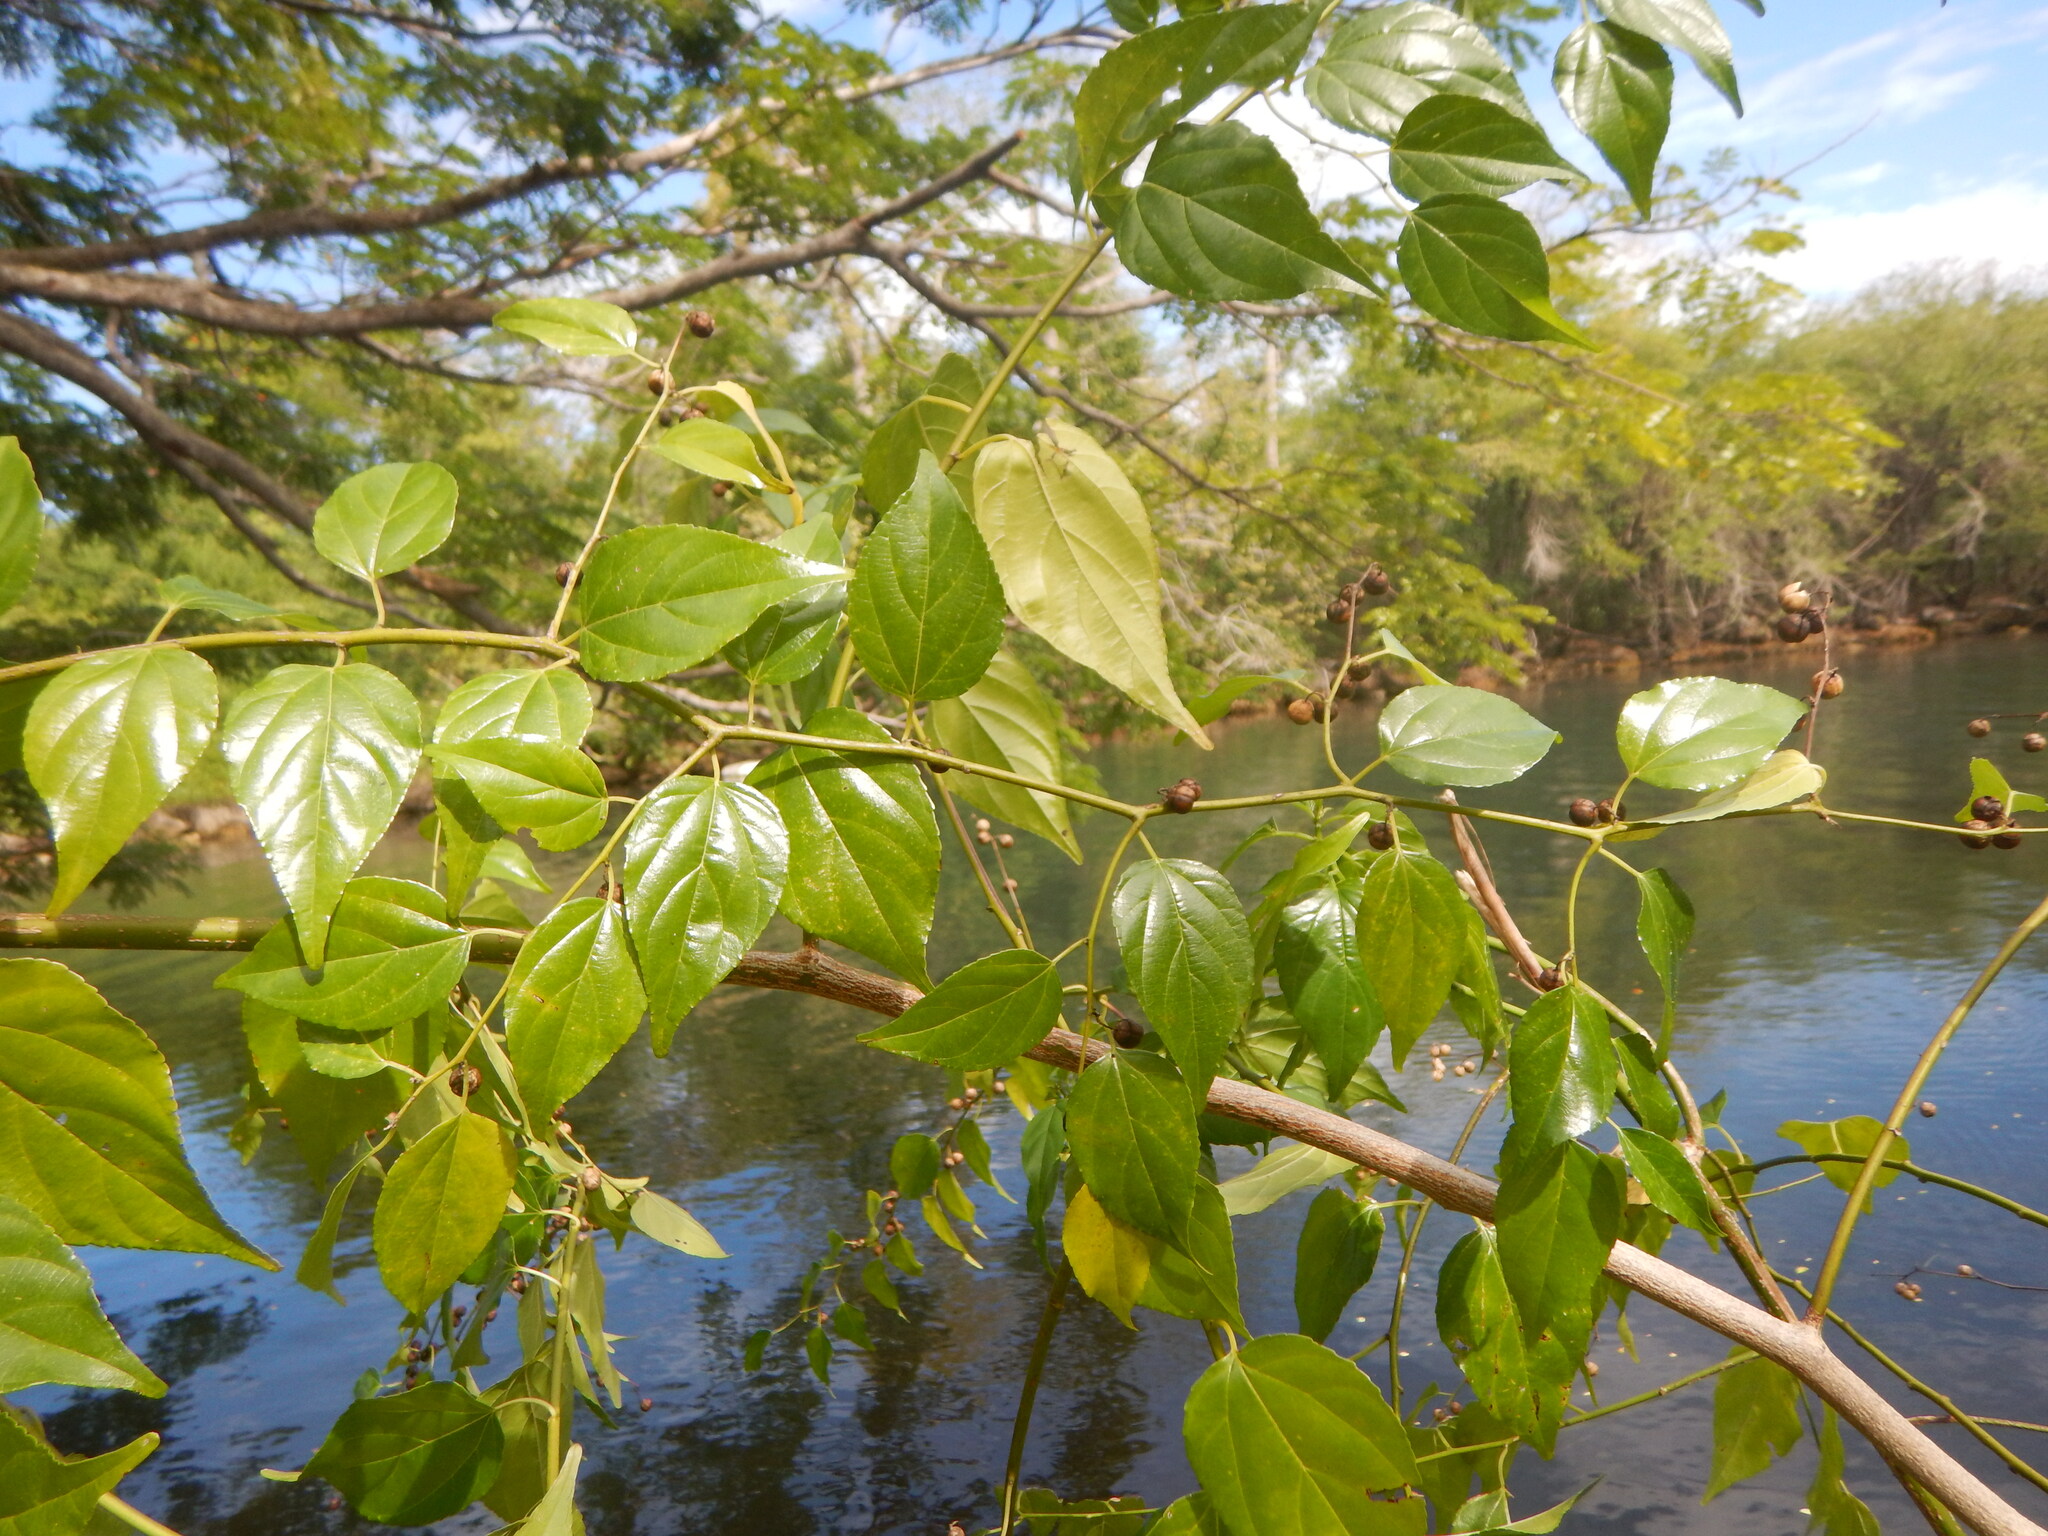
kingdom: Plantae
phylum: Tracheophyta
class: Magnoliopsida
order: Rosales
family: Rhamnaceae
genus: Colubrina
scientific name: Colubrina asiatica
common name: Asian nakedwood
